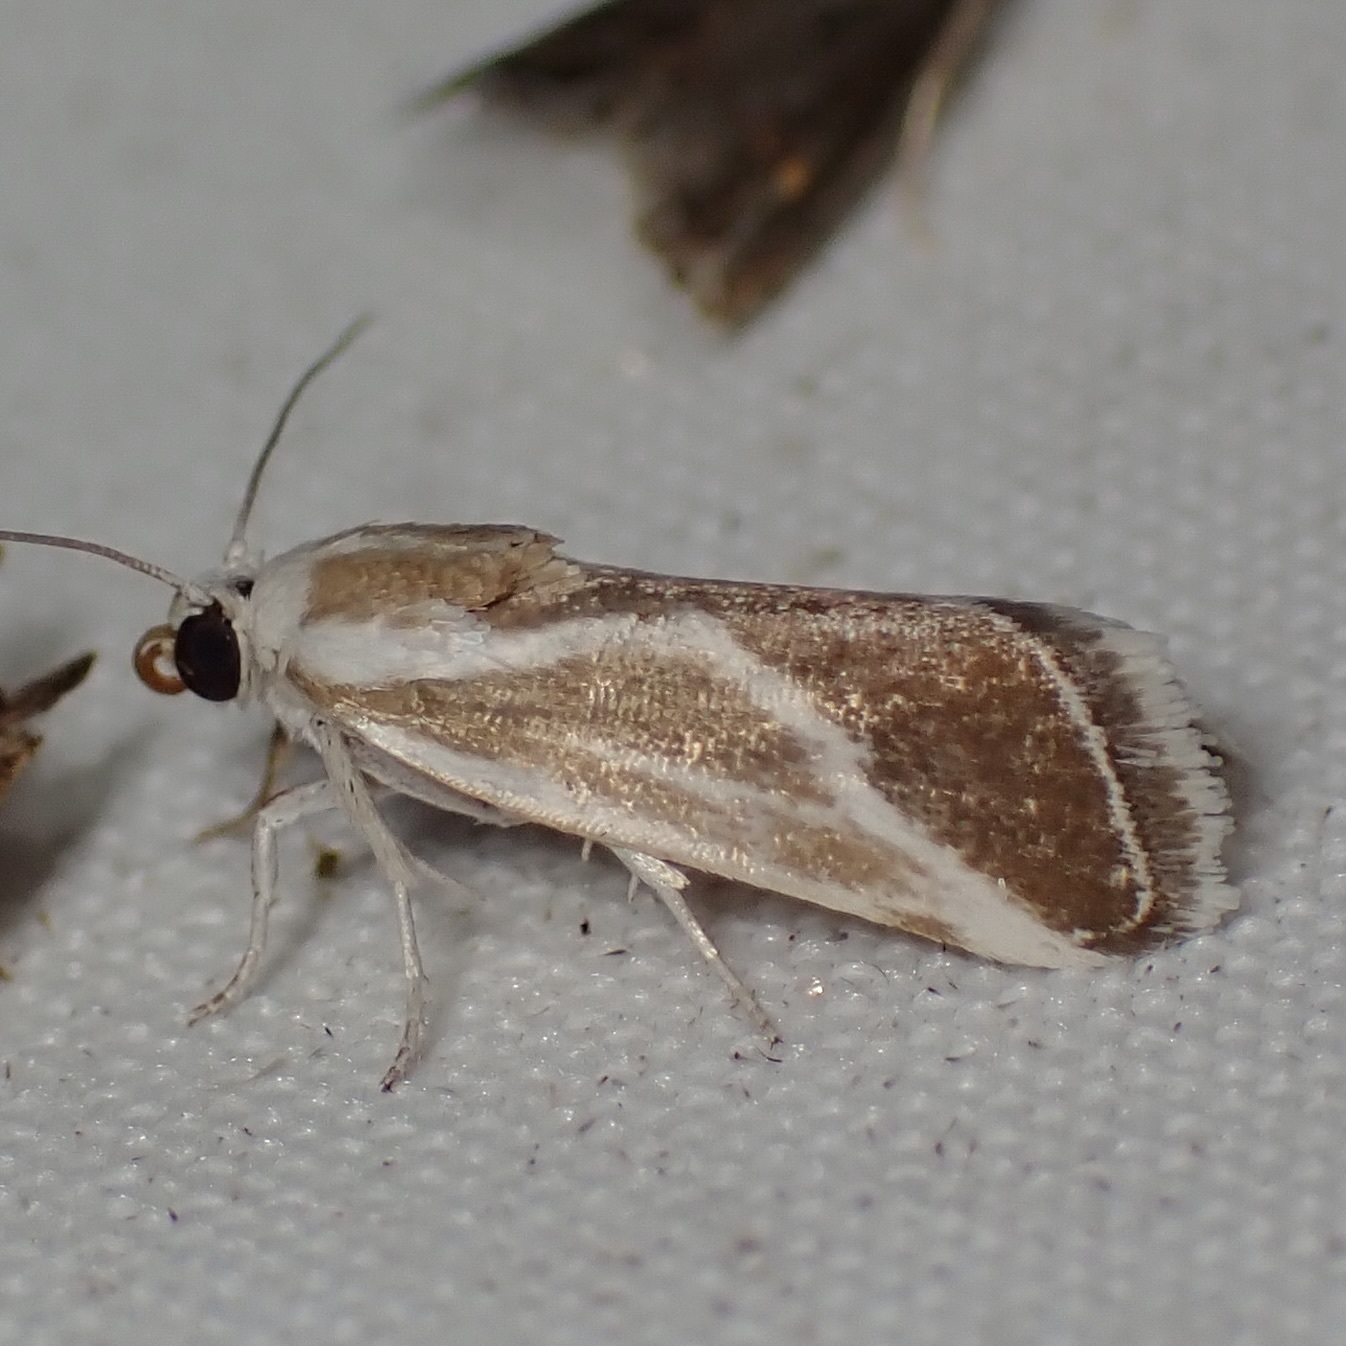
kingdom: Animalia
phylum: Arthropoda
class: Insecta
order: Lepidoptera
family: Noctuidae
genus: Acontia
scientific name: Acontia alata
